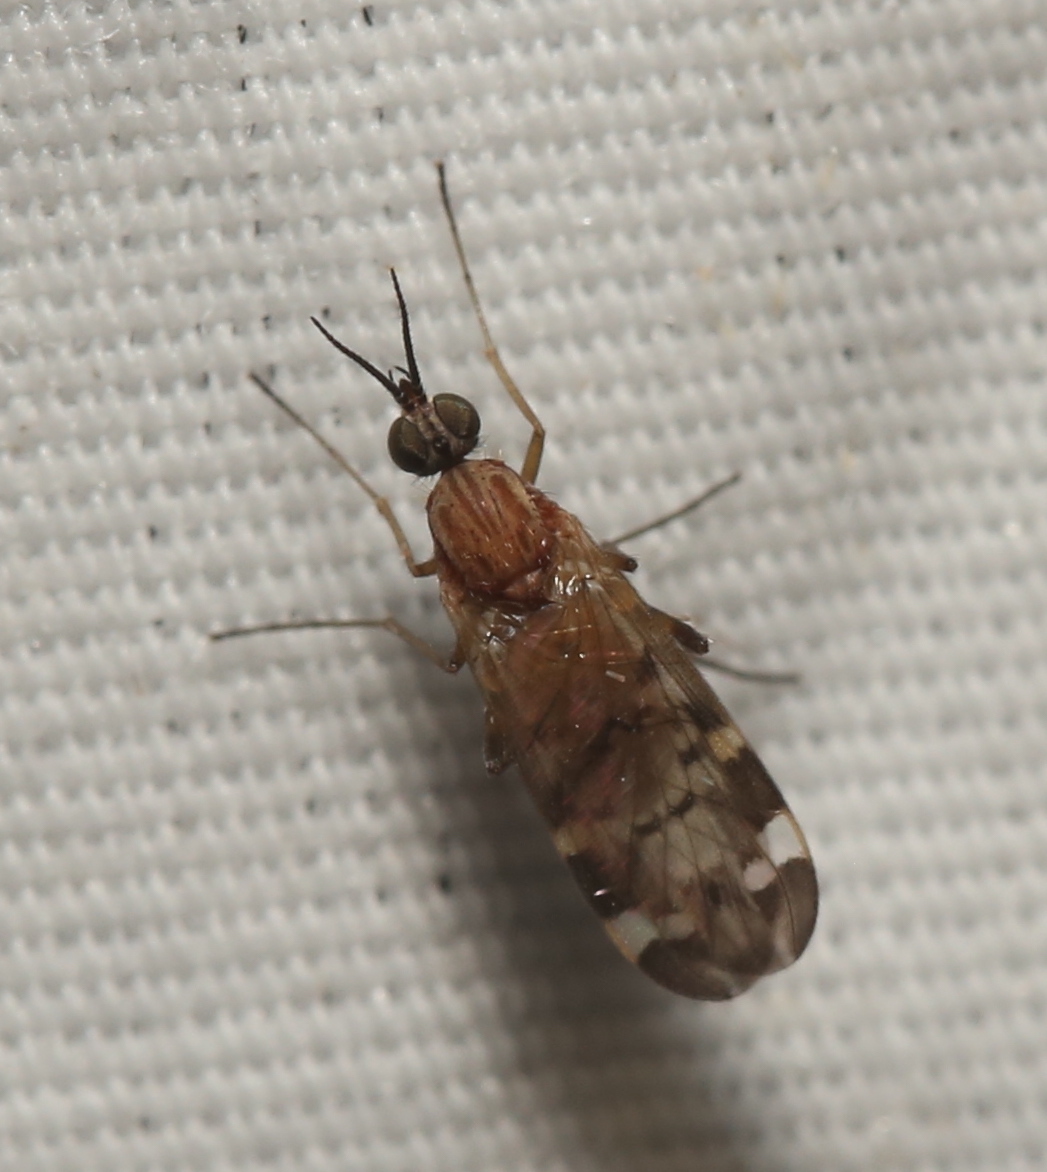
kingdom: Animalia
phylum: Arthropoda
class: Insecta
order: Diptera
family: Anisopodidae
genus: Sylvicola
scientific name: Sylvicola alternata
